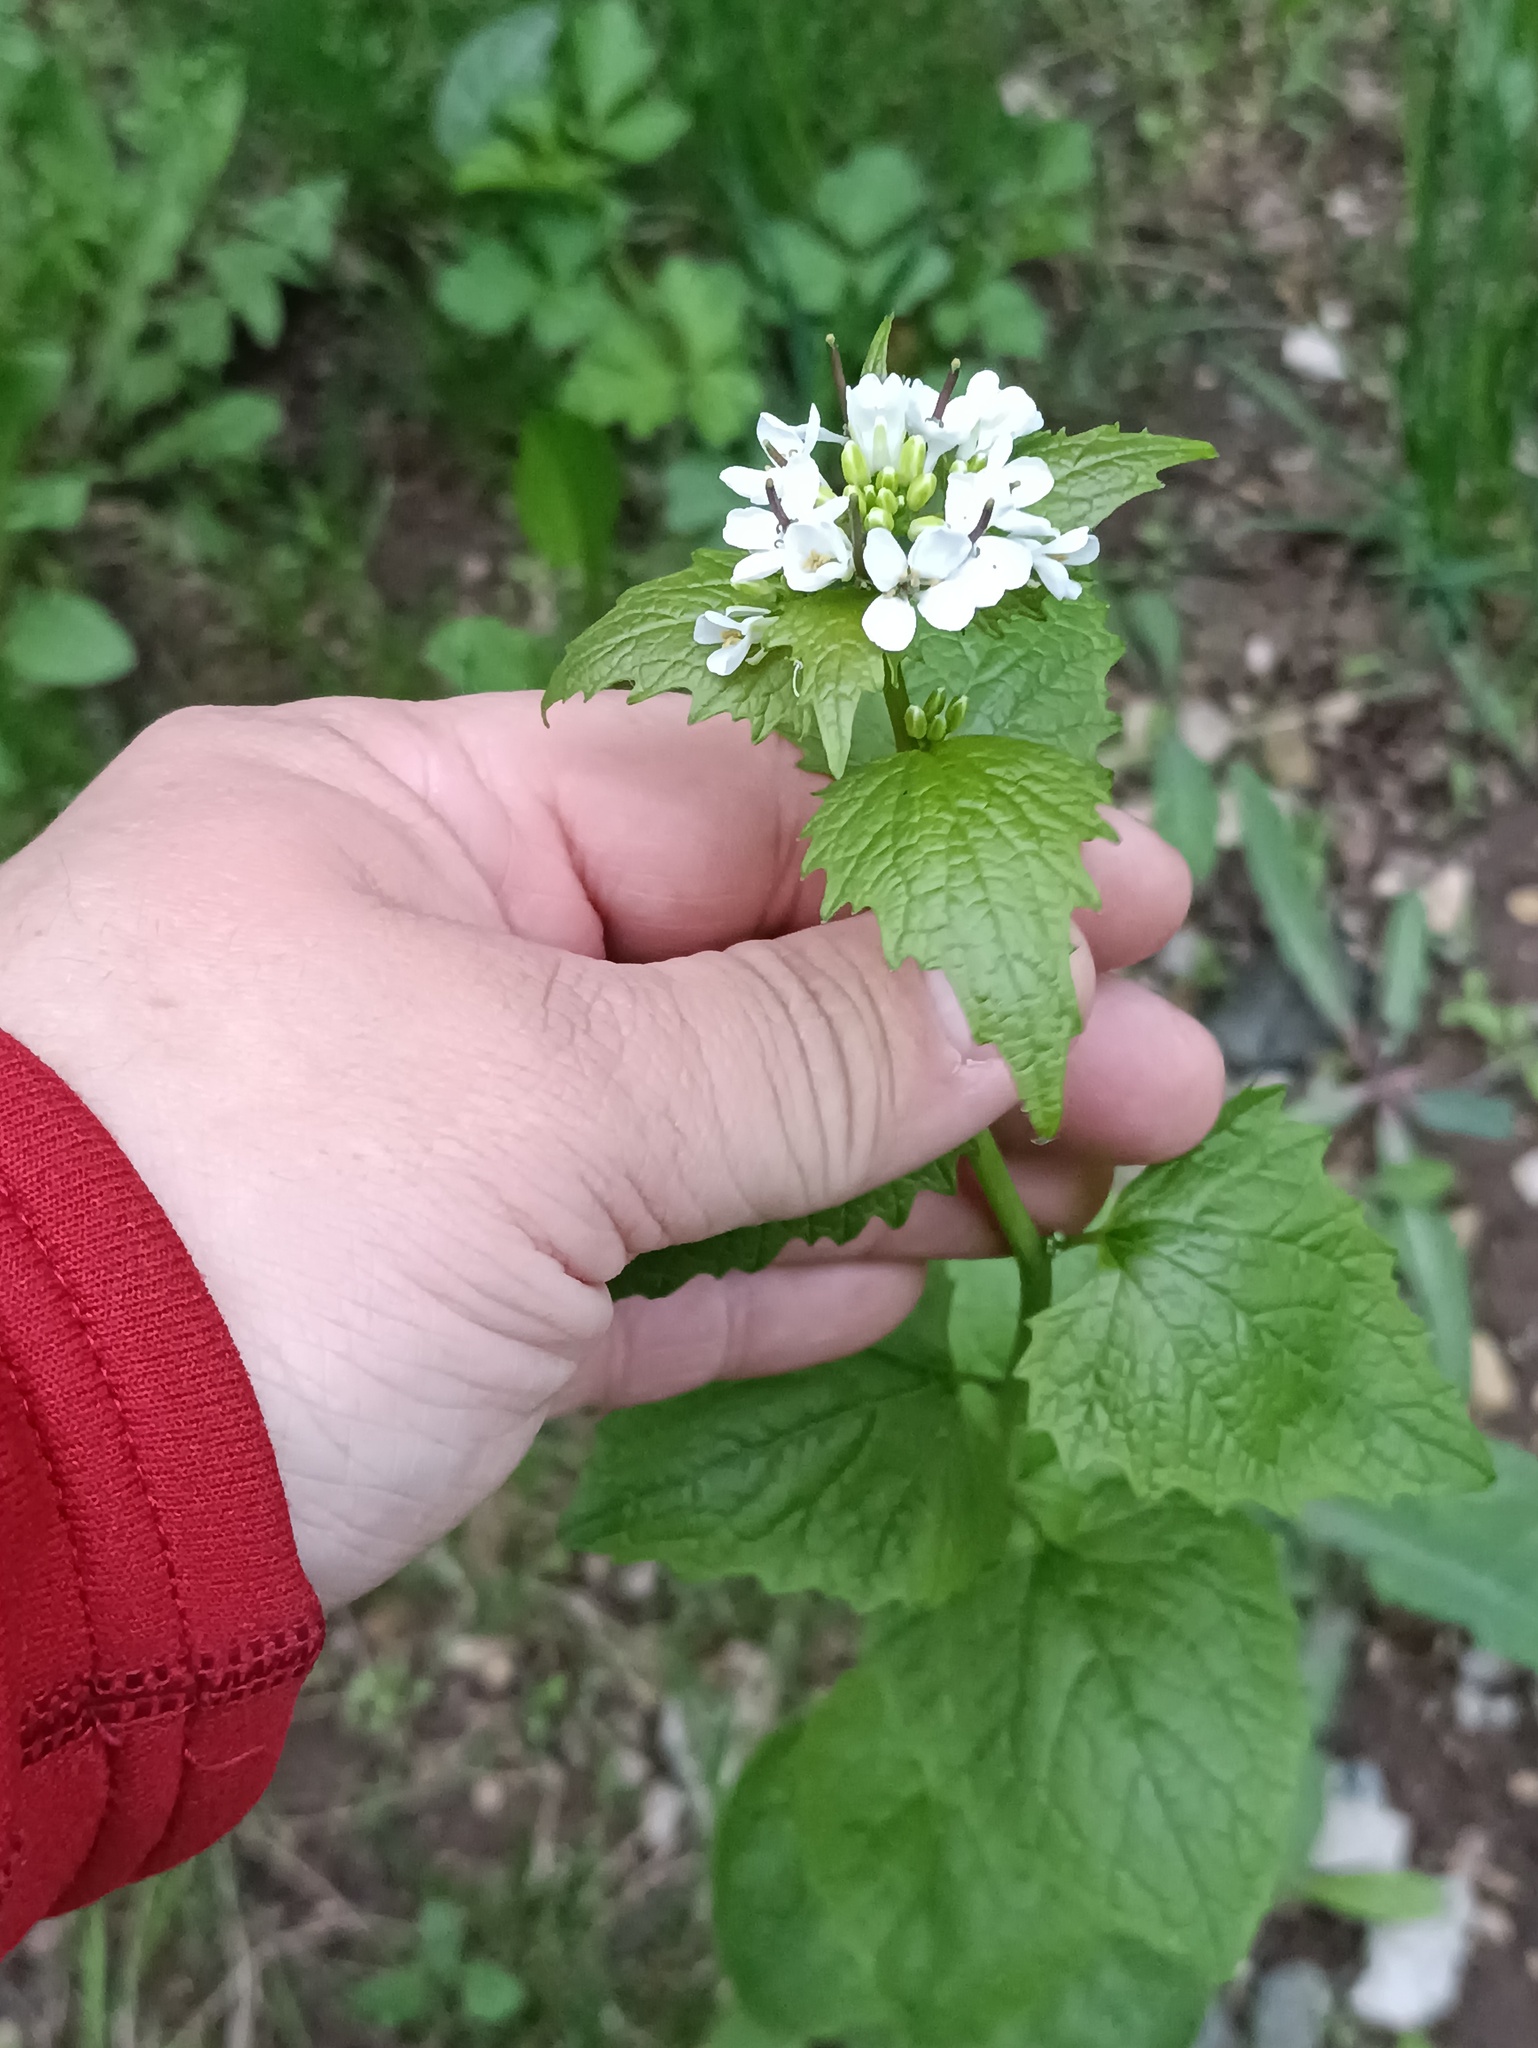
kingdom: Plantae
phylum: Tracheophyta
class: Magnoliopsida
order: Brassicales
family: Brassicaceae
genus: Alliaria
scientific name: Alliaria petiolata
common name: Garlic mustard
